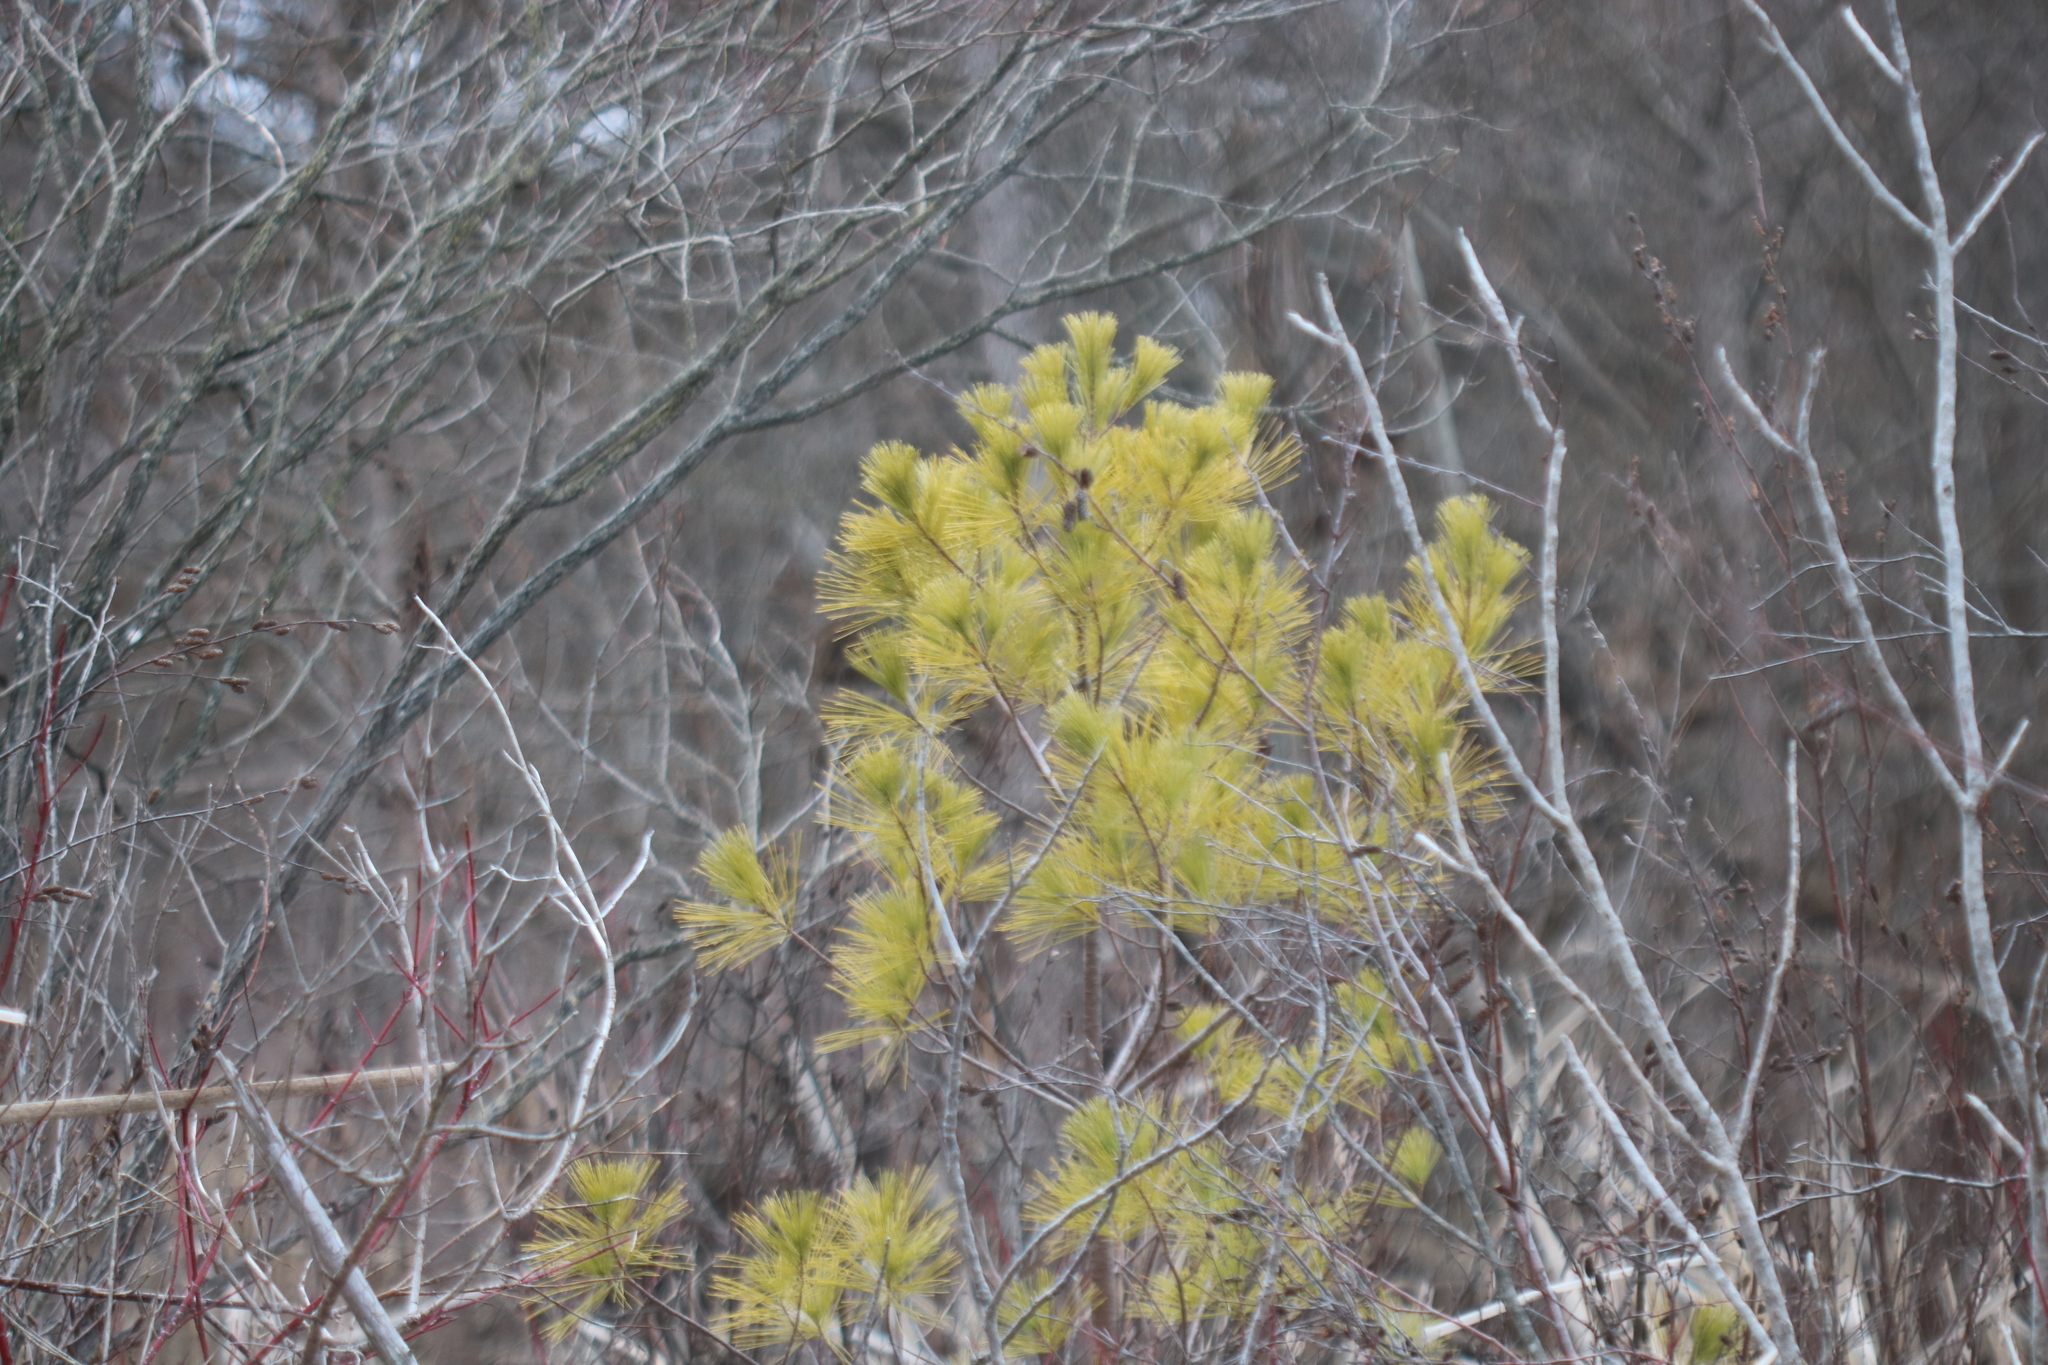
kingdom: Plantae
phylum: Tracheophyta
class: Pinopsida
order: Pinales
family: Pinaceae
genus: Pinus
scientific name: Pinus strobus
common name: Weymouth pine
